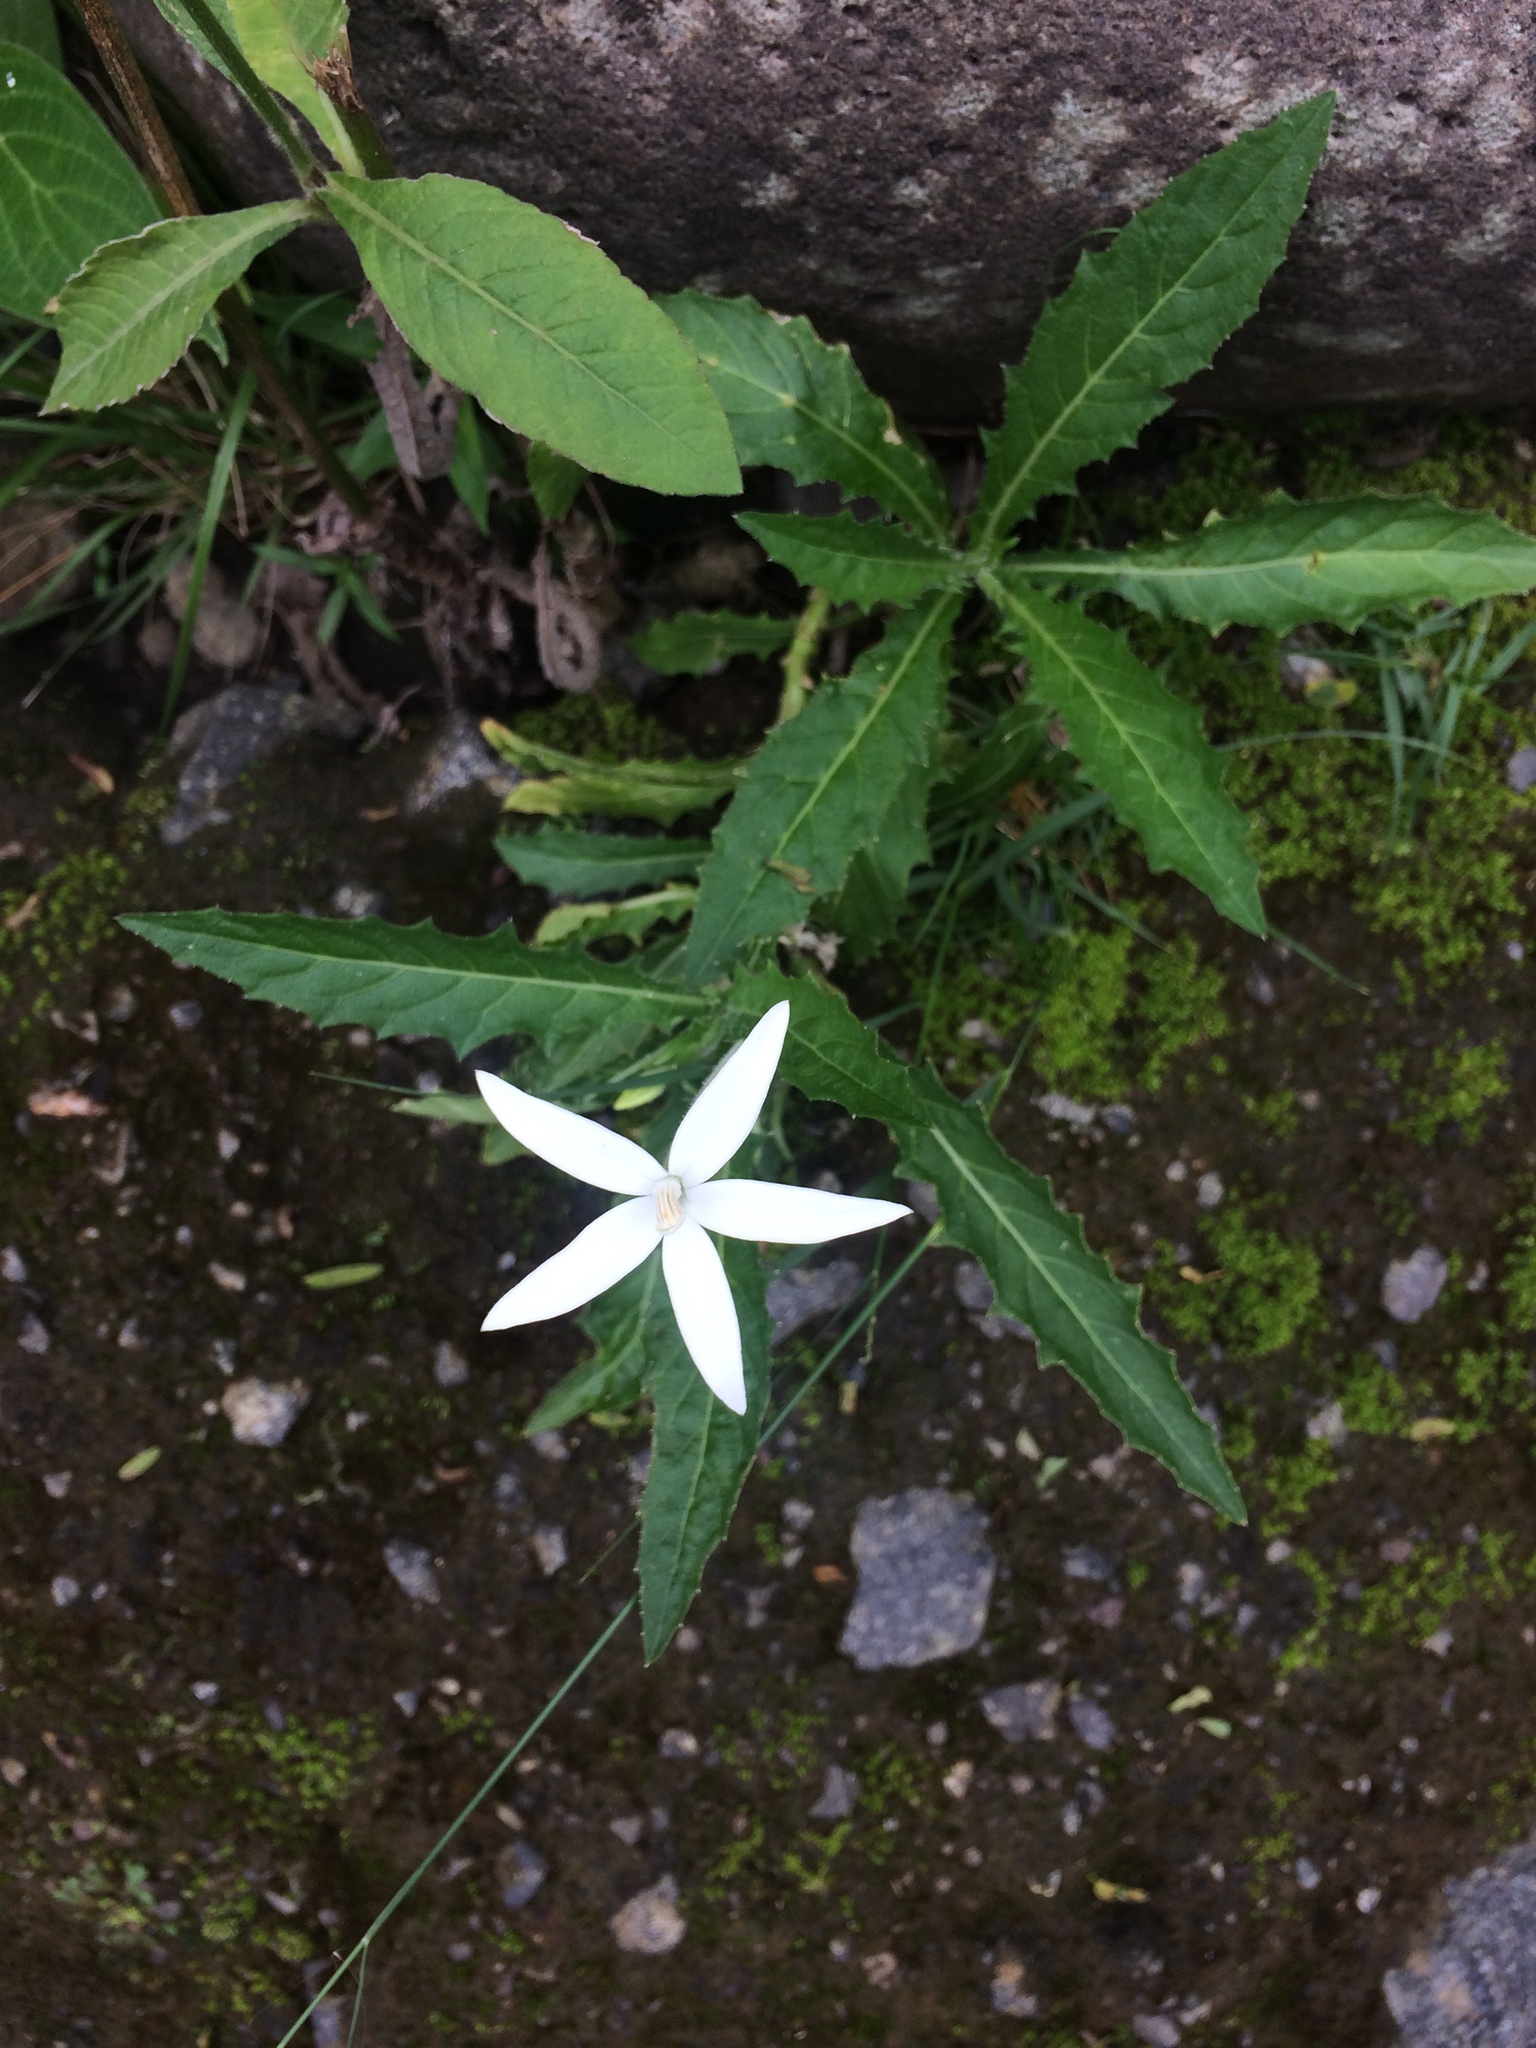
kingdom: Plantae
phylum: Tracheophyta
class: Magnoliopsida
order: Asterales
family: Campanulaceae
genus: Hippobroma
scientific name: Hippobroma longiflora
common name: Madamfate
